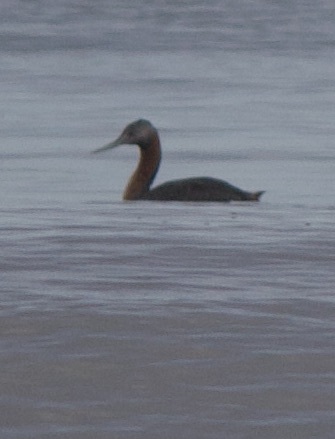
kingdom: Animalia
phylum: Chordata
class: Aves
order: Podicipediformes
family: Podicipedidae
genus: Podiceps
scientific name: Podiceps major
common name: Great grebe
